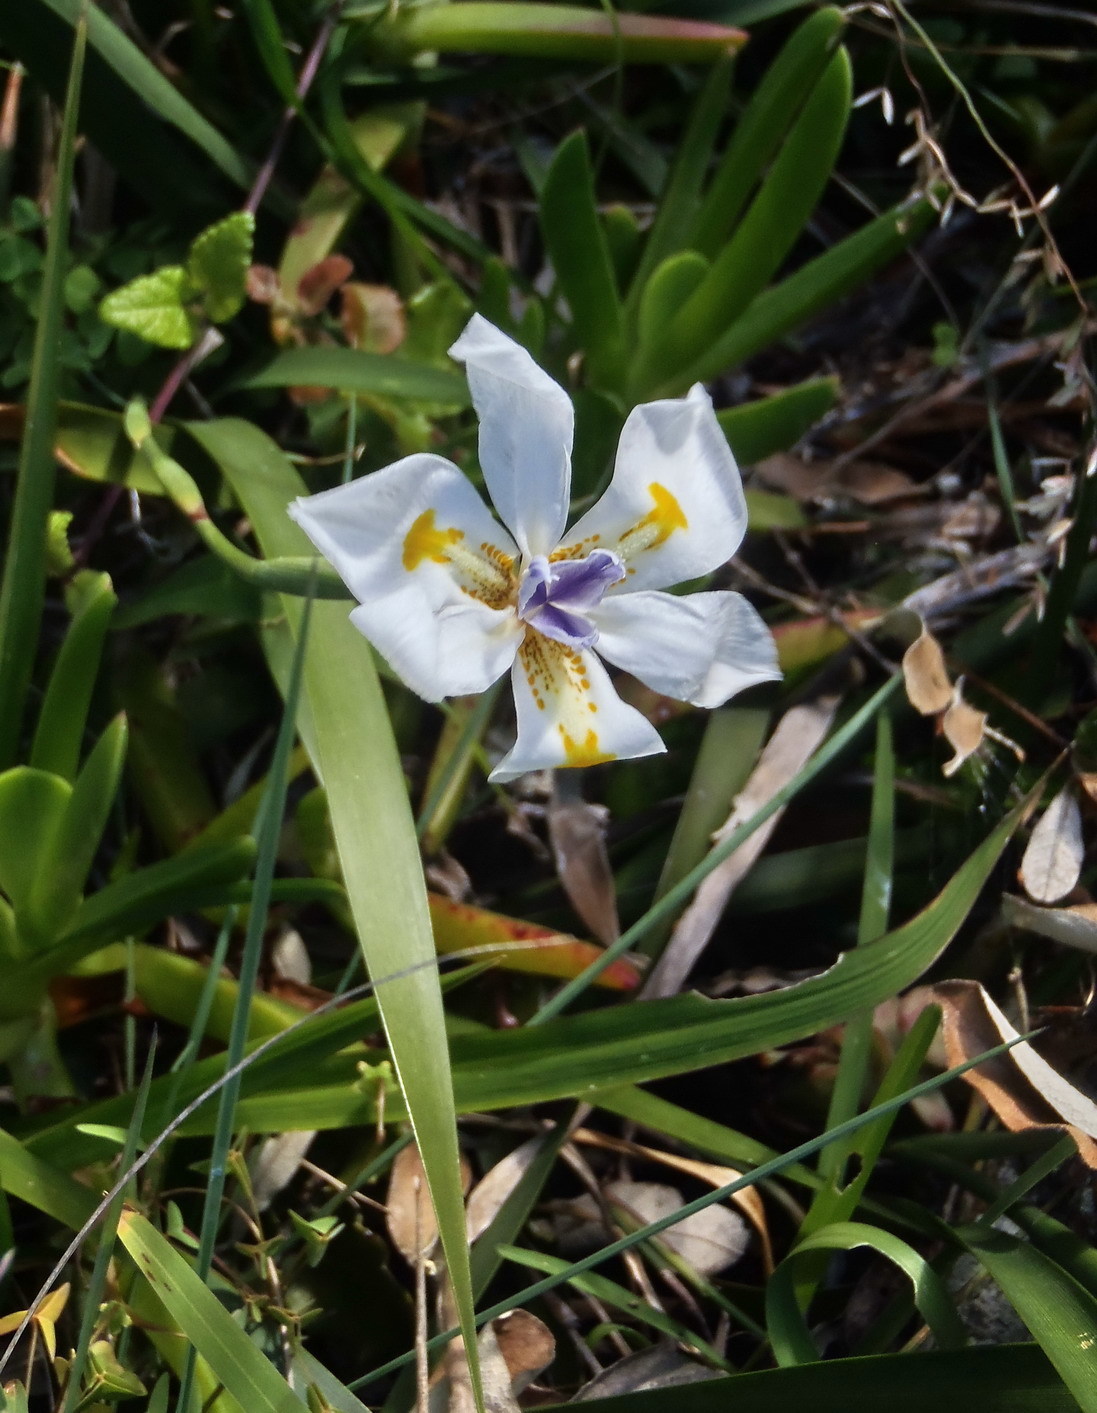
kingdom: Plantae
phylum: Tracheophyta
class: Liliopsida
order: Asparagales
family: Iridaceae
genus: Dietes
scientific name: Dietes iridioides
